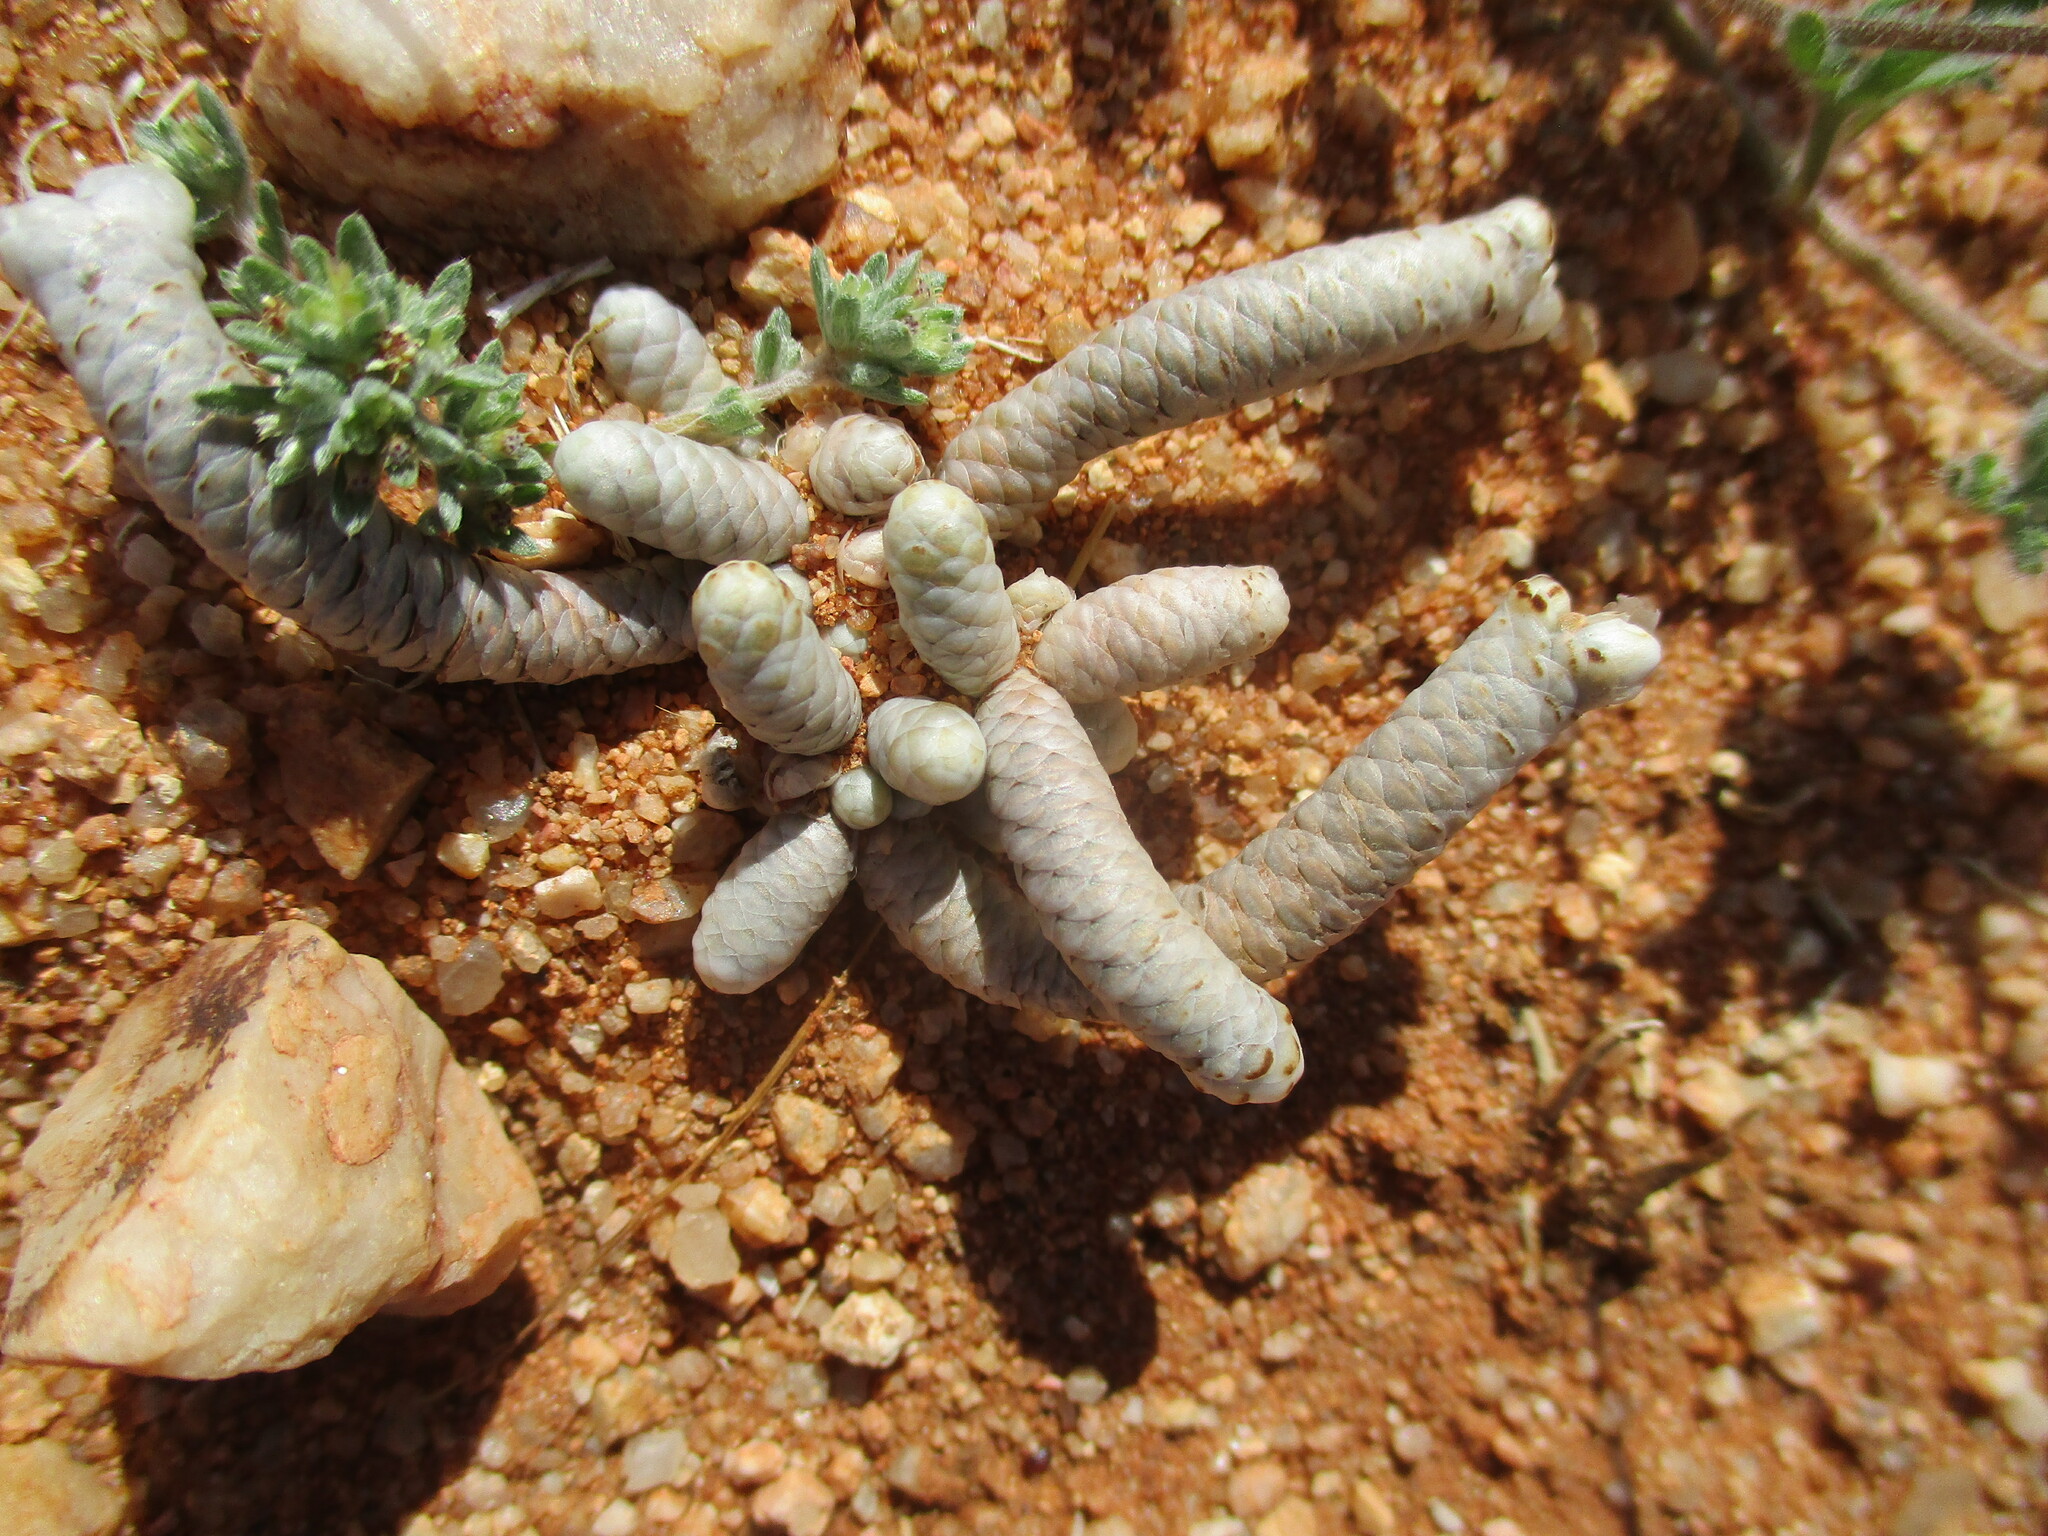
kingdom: Plantae
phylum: Tracheophyta
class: Magnoliopsida
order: Caryophyllales
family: Anacampserotaceae
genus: Avonia
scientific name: Avonia albissima
